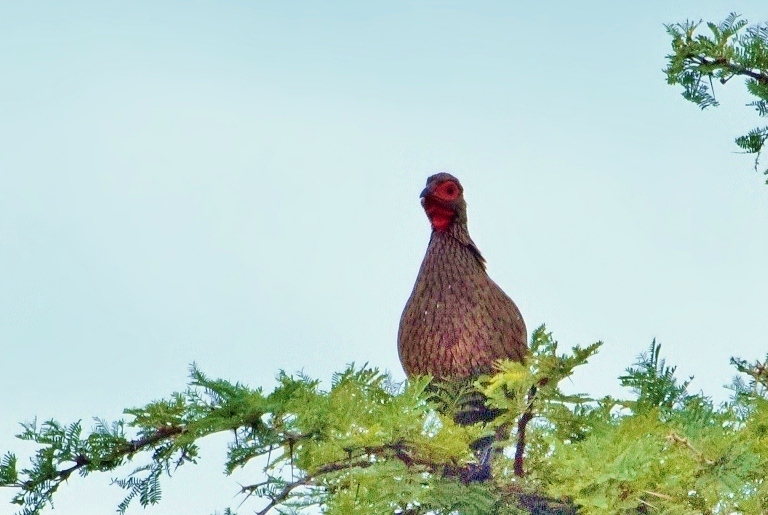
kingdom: Animalia
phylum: Chordata
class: Aves
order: Galliformes
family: Phasianidae
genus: Pternistis
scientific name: Pternistis swainsonii
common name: Swainson's spurfowl
